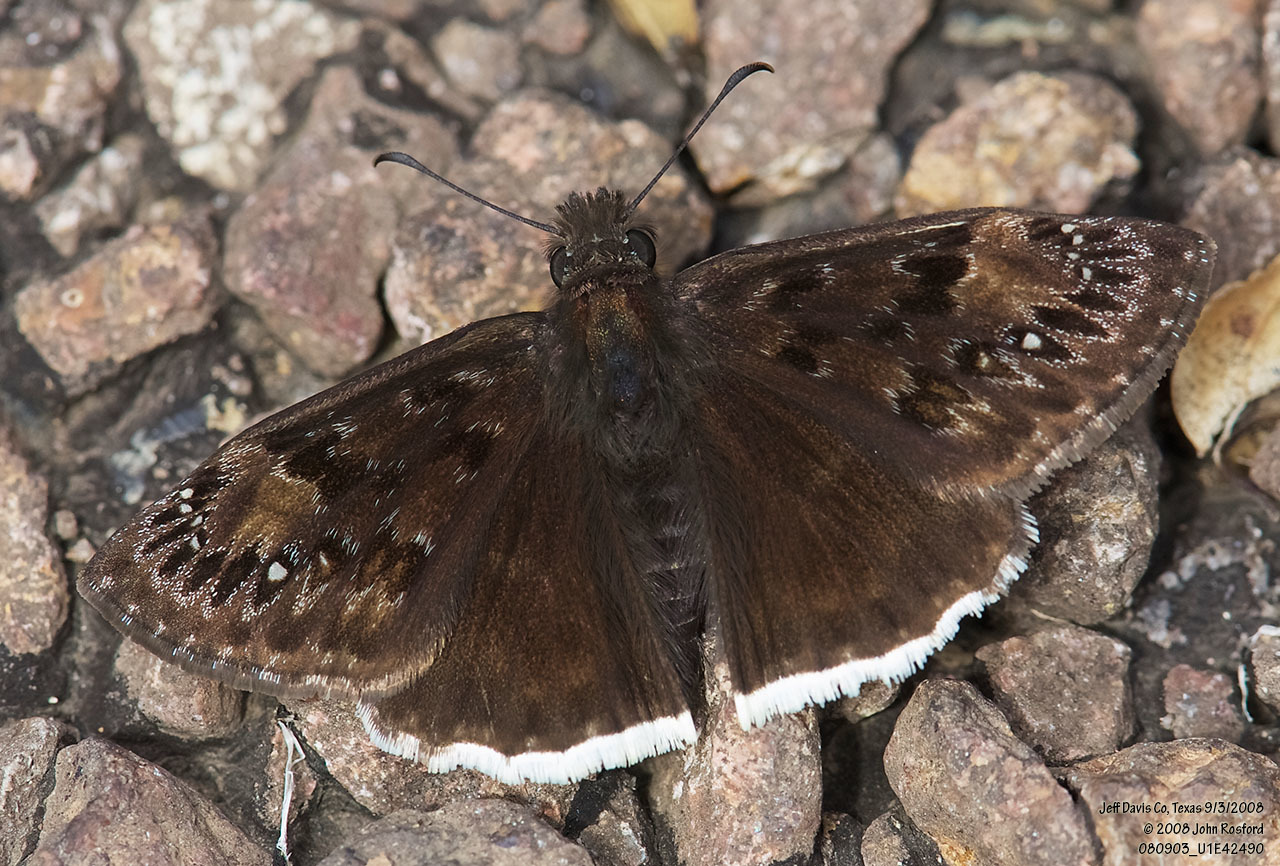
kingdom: Animalia
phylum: Arthropoda
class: Insecta
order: Lepidoptera
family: Hesperiidae
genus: Erynnis
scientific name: Erynnis tristis
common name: Mournful duskywing
